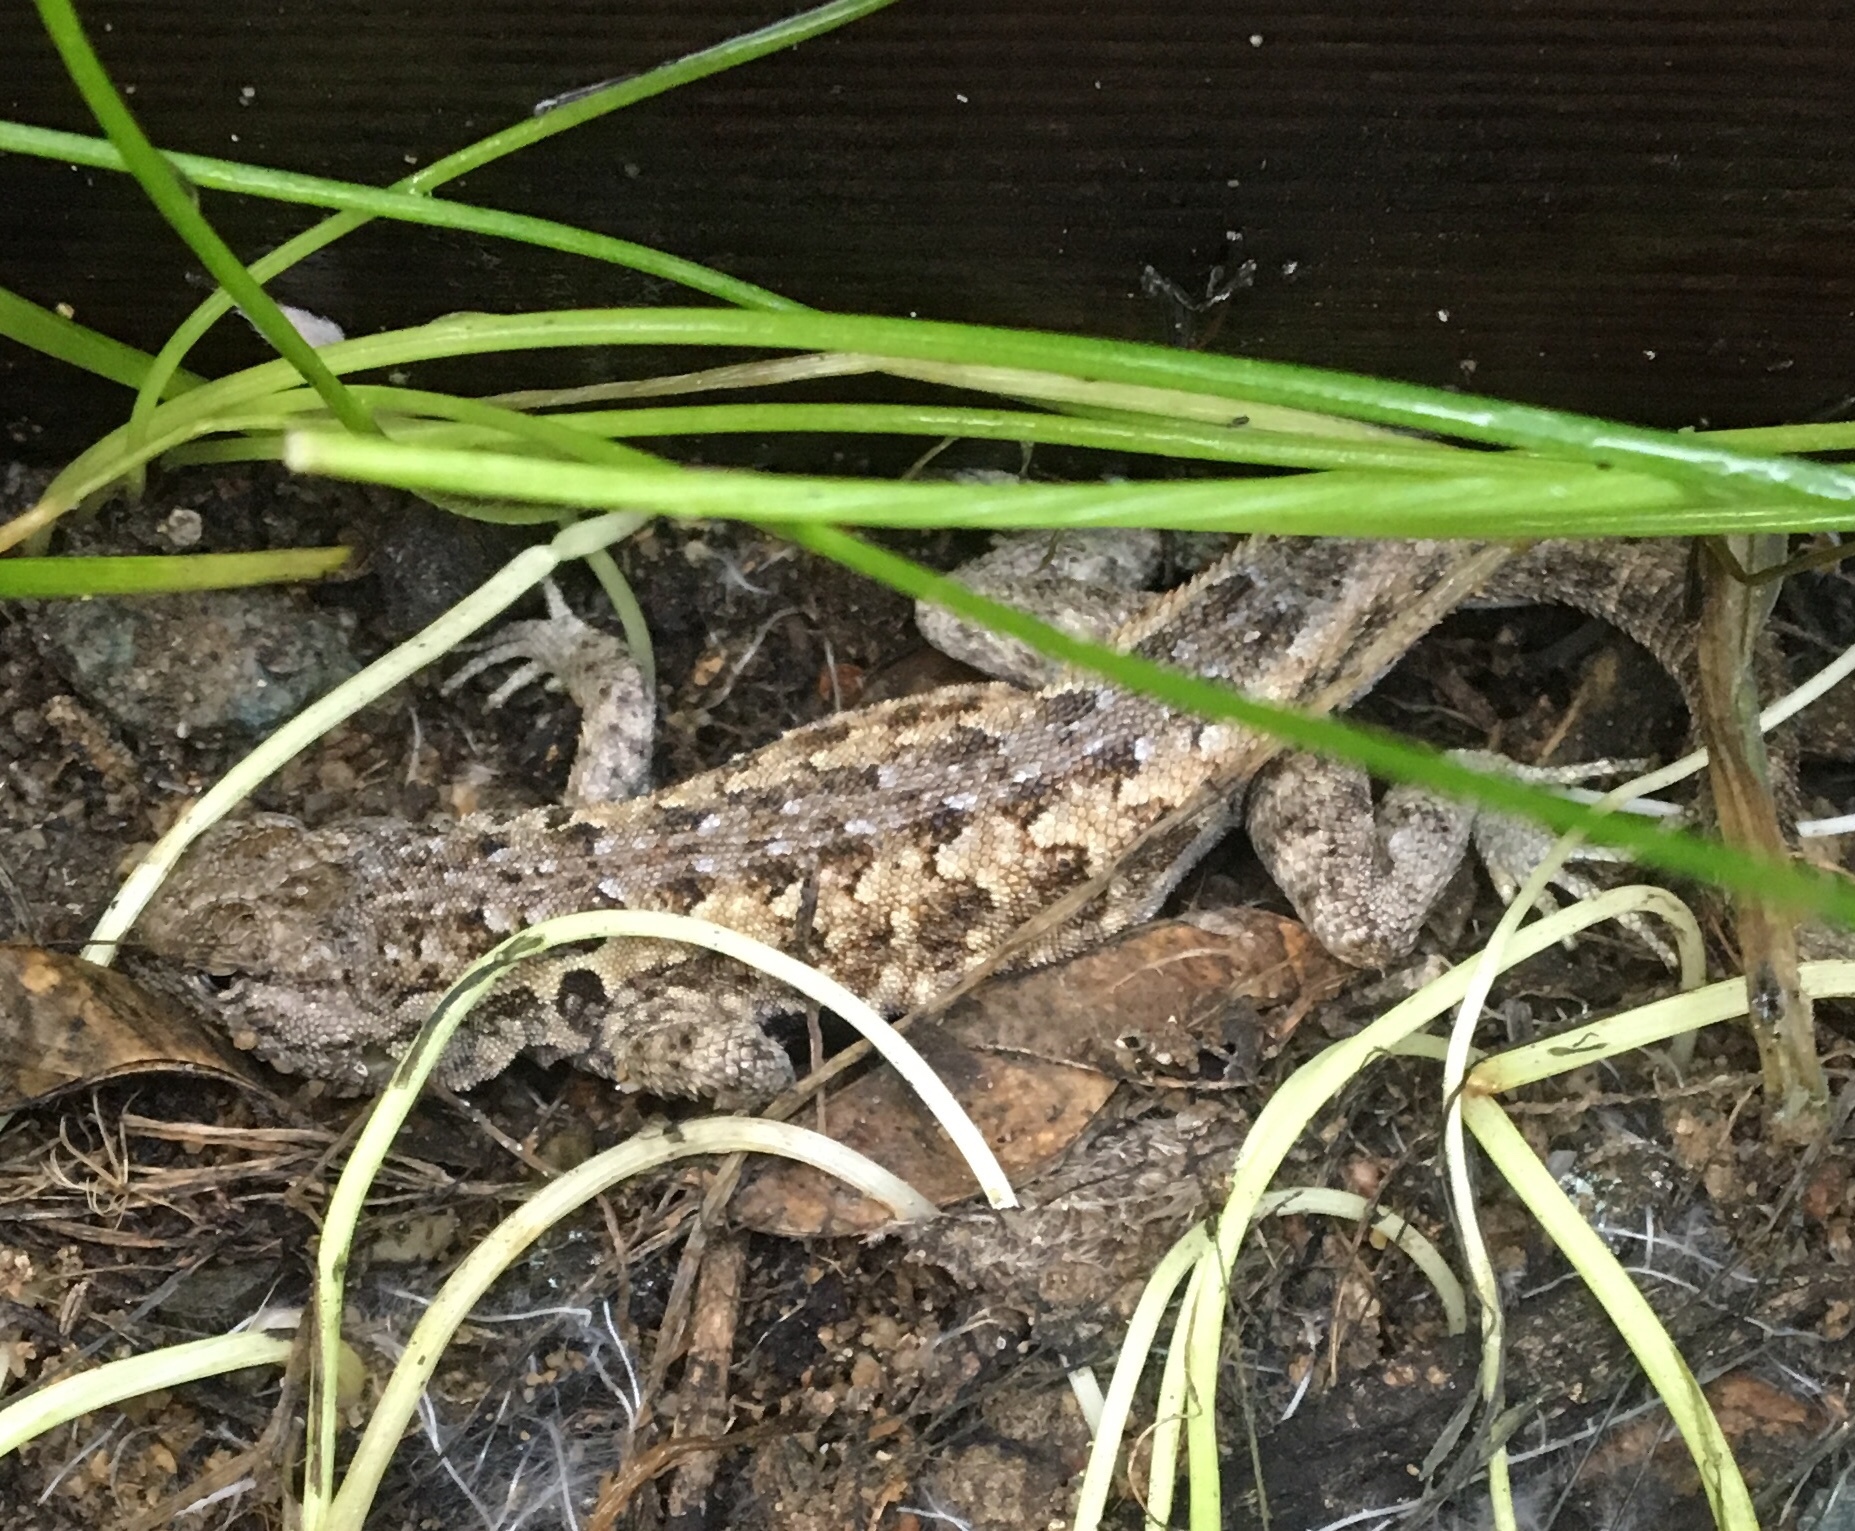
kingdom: Animalia
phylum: Chordata
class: Squamata
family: Phrynosomatidae
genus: Uta
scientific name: Uta stansburiana
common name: Side-blotched lizard
